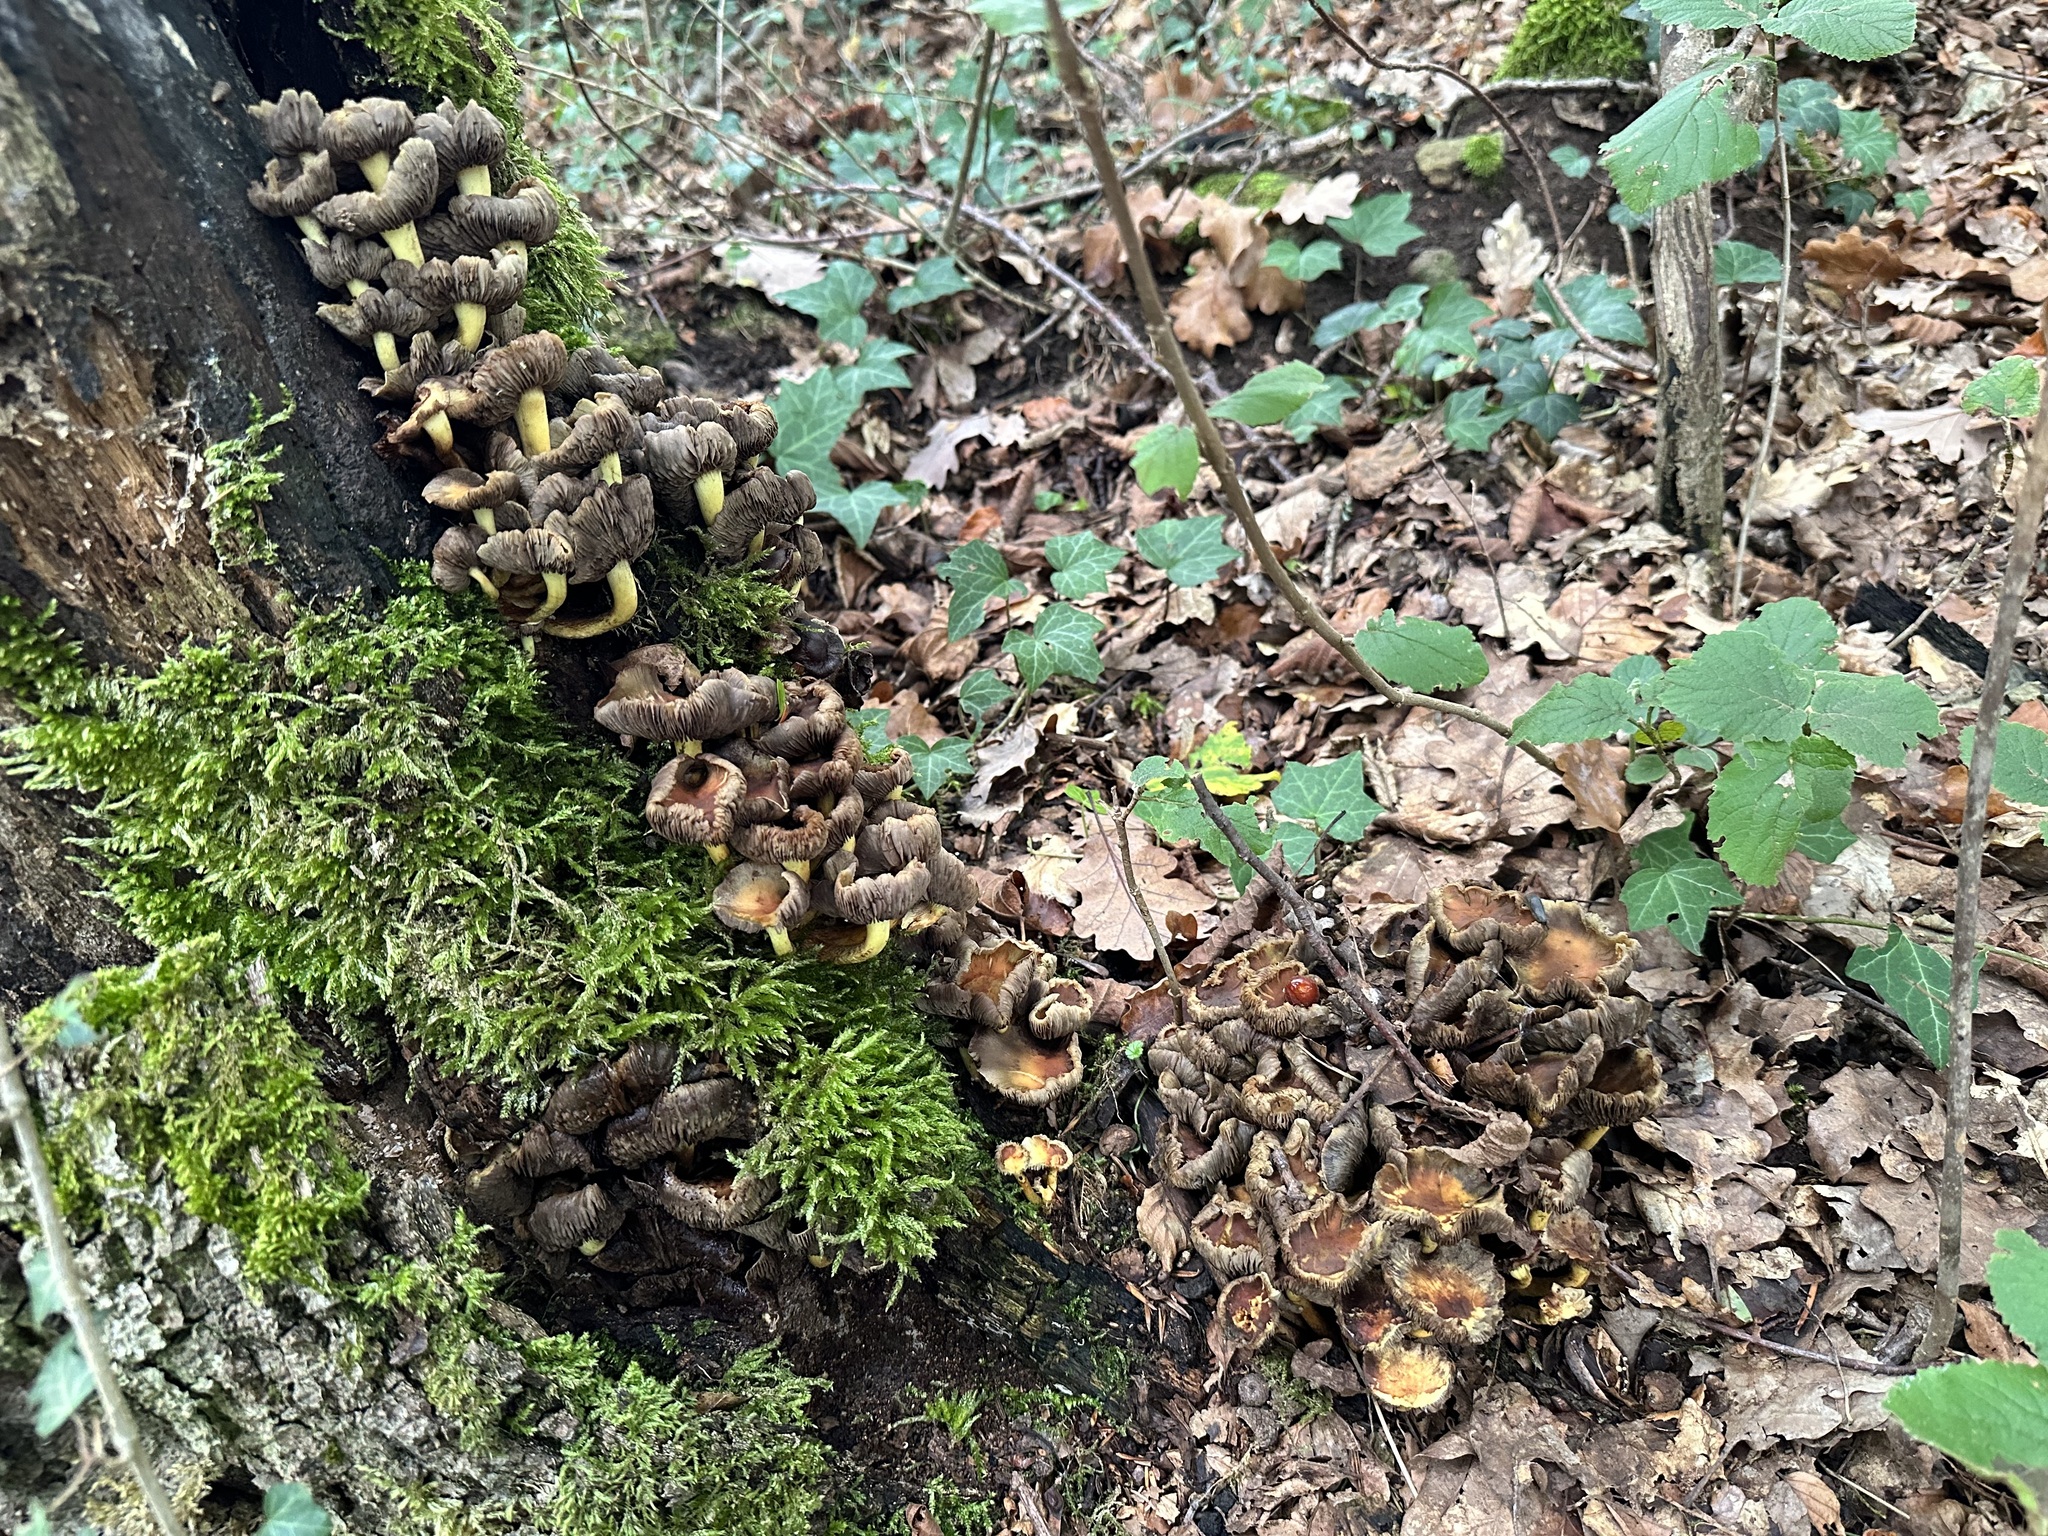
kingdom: Fungi
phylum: Basidiomycota
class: Agaricomycetes
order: Agaricales
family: Strophariaceae
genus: Hypholoma
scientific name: Hypholoma fasciculare
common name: Sulphur tuft
